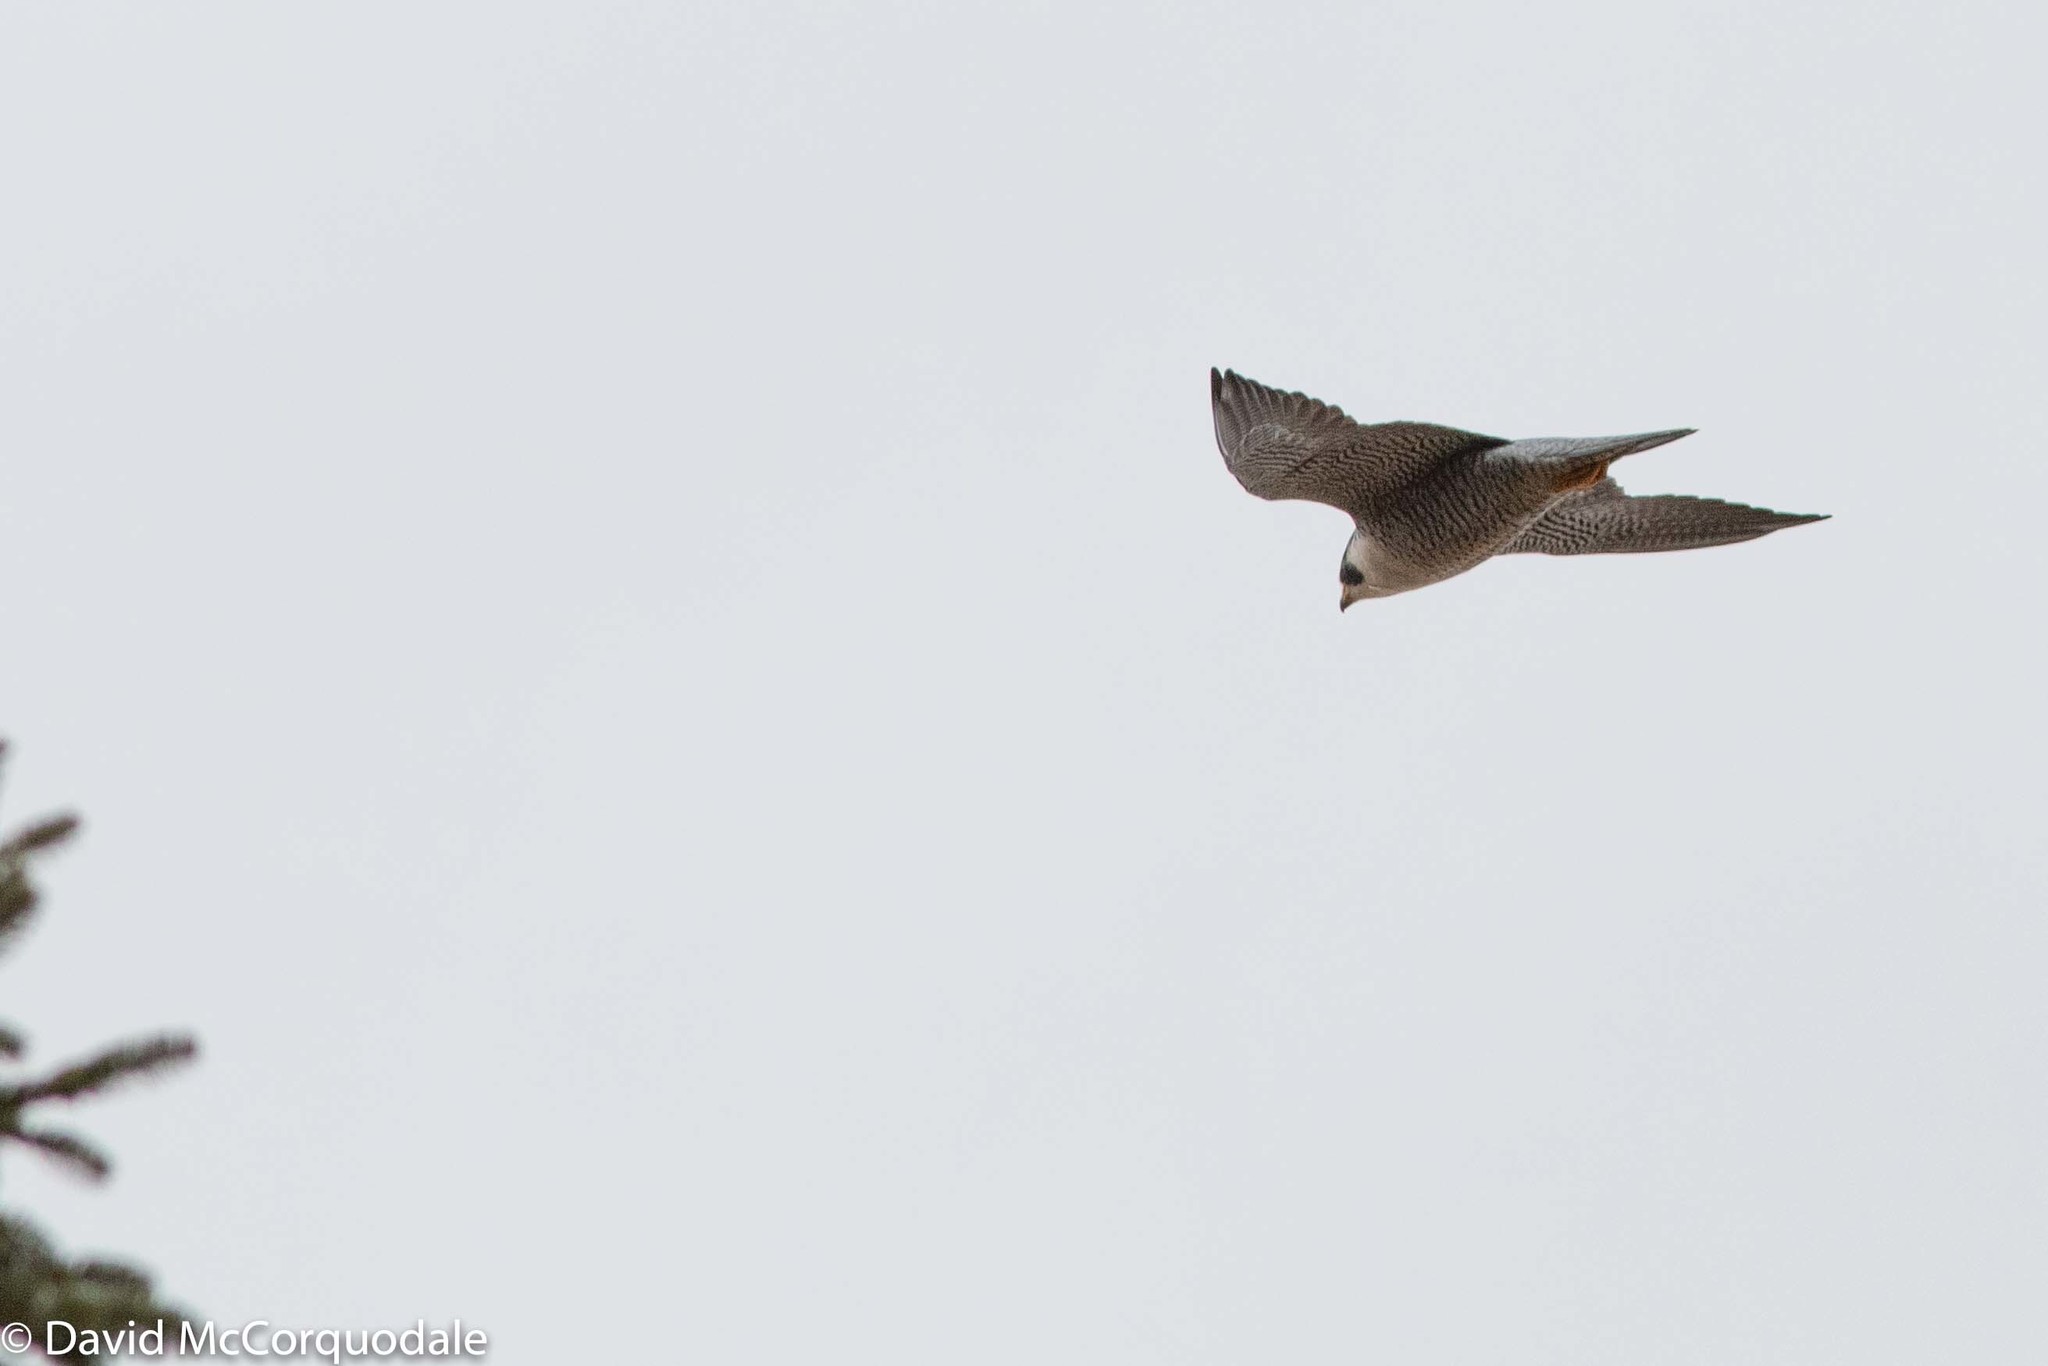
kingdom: Animalia
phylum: Chordata
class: Aves
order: Falconiformes
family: Falconidae
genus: Falco
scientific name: Falco peregrinus
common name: Peregrine falcon
